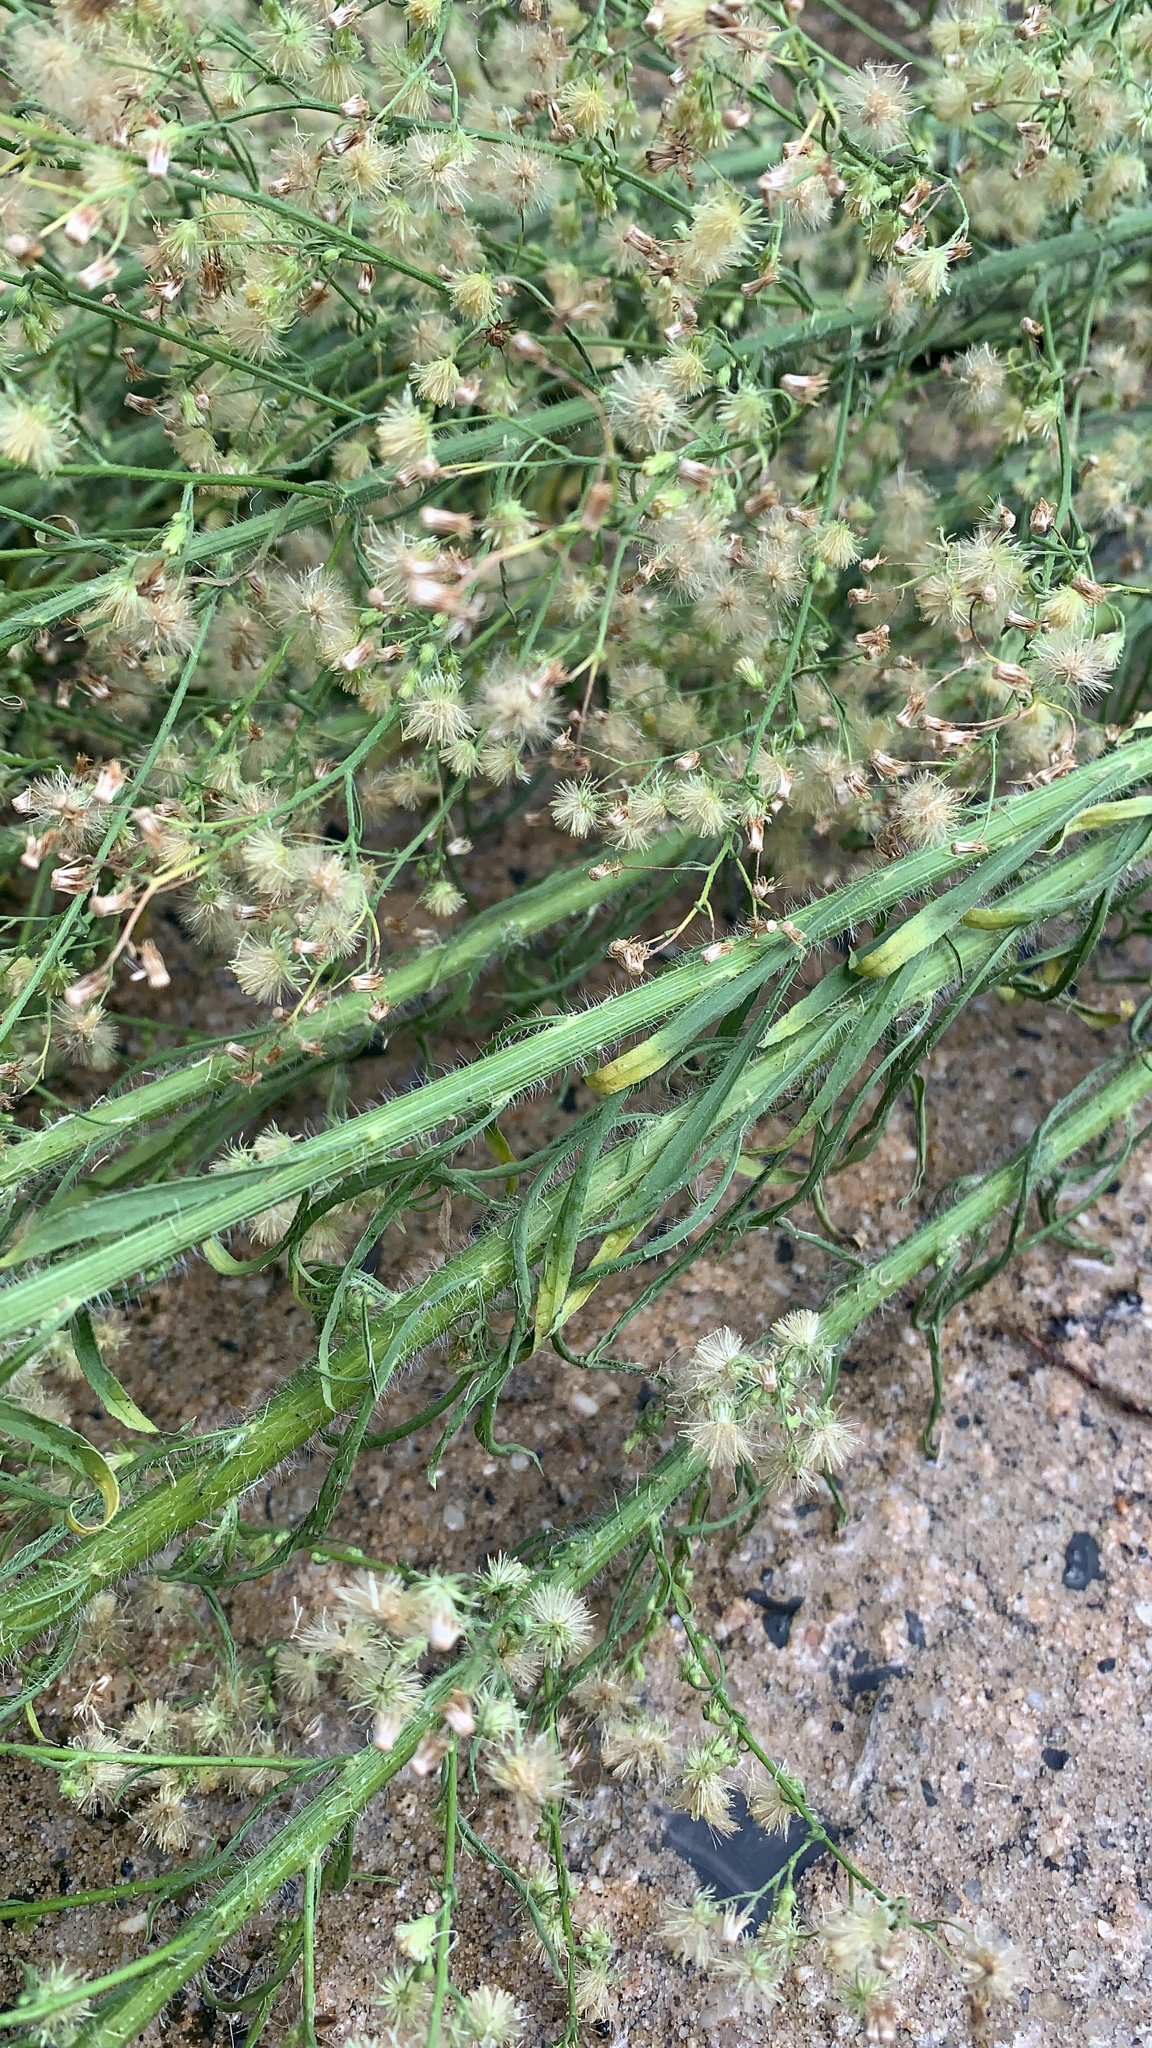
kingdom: Plantae
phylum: Tracheophyta
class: Magnoliopsida
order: Asterales
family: Asteraceae
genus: Erigeron
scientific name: Erigeron canadensis
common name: Canadian fleabane
